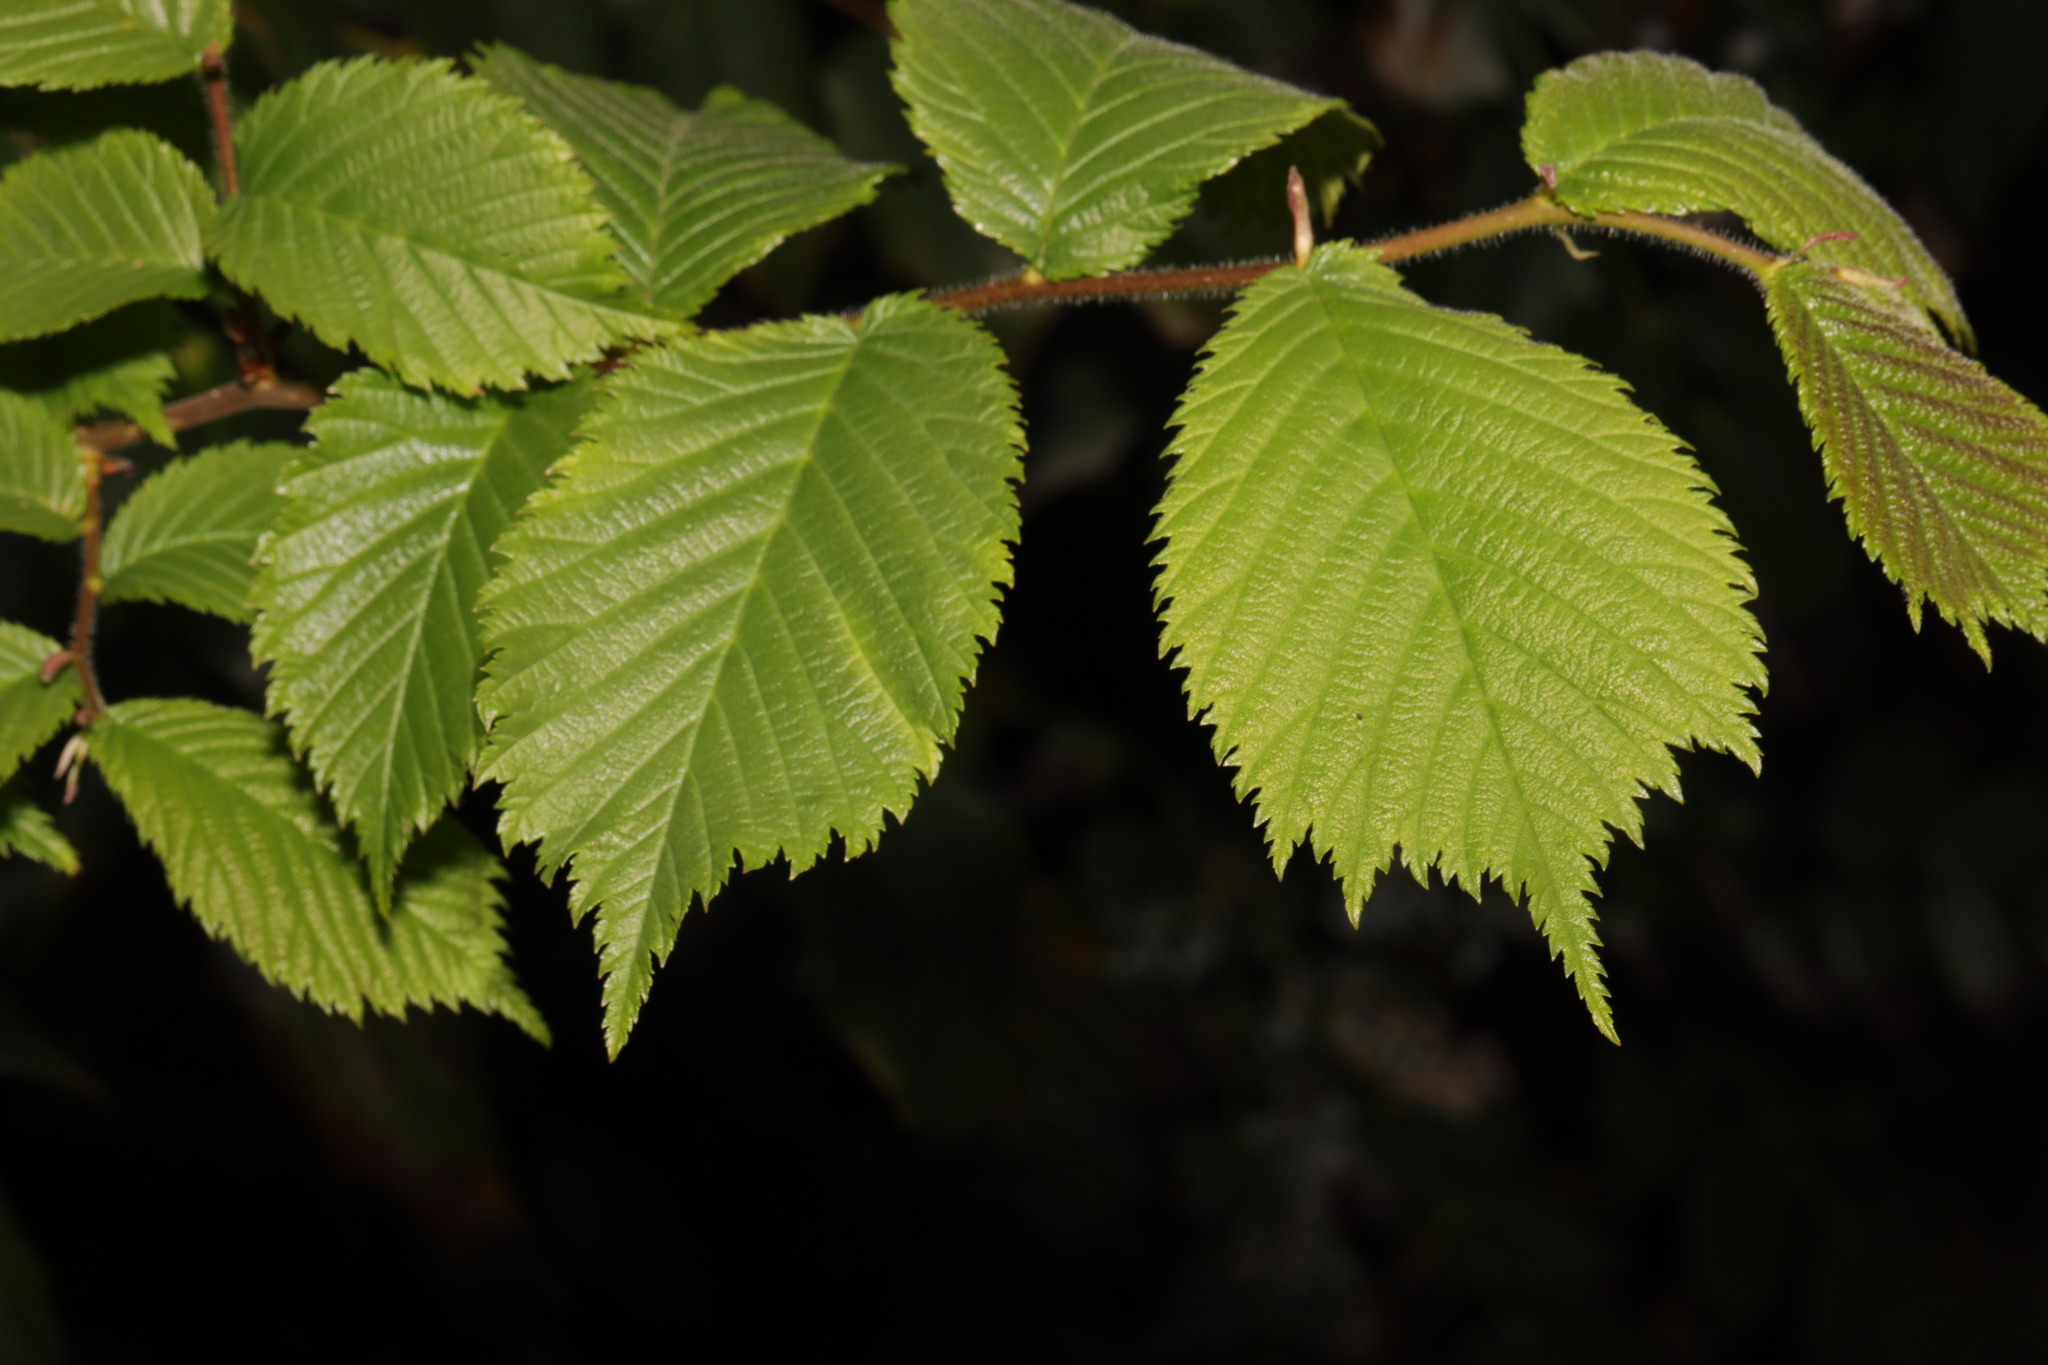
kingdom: Plantae
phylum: Tracheophyta
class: Magnoliopsida
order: Rosales
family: Ulmaceae
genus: Ulmus
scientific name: Ulmus glabra
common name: Wych elm
